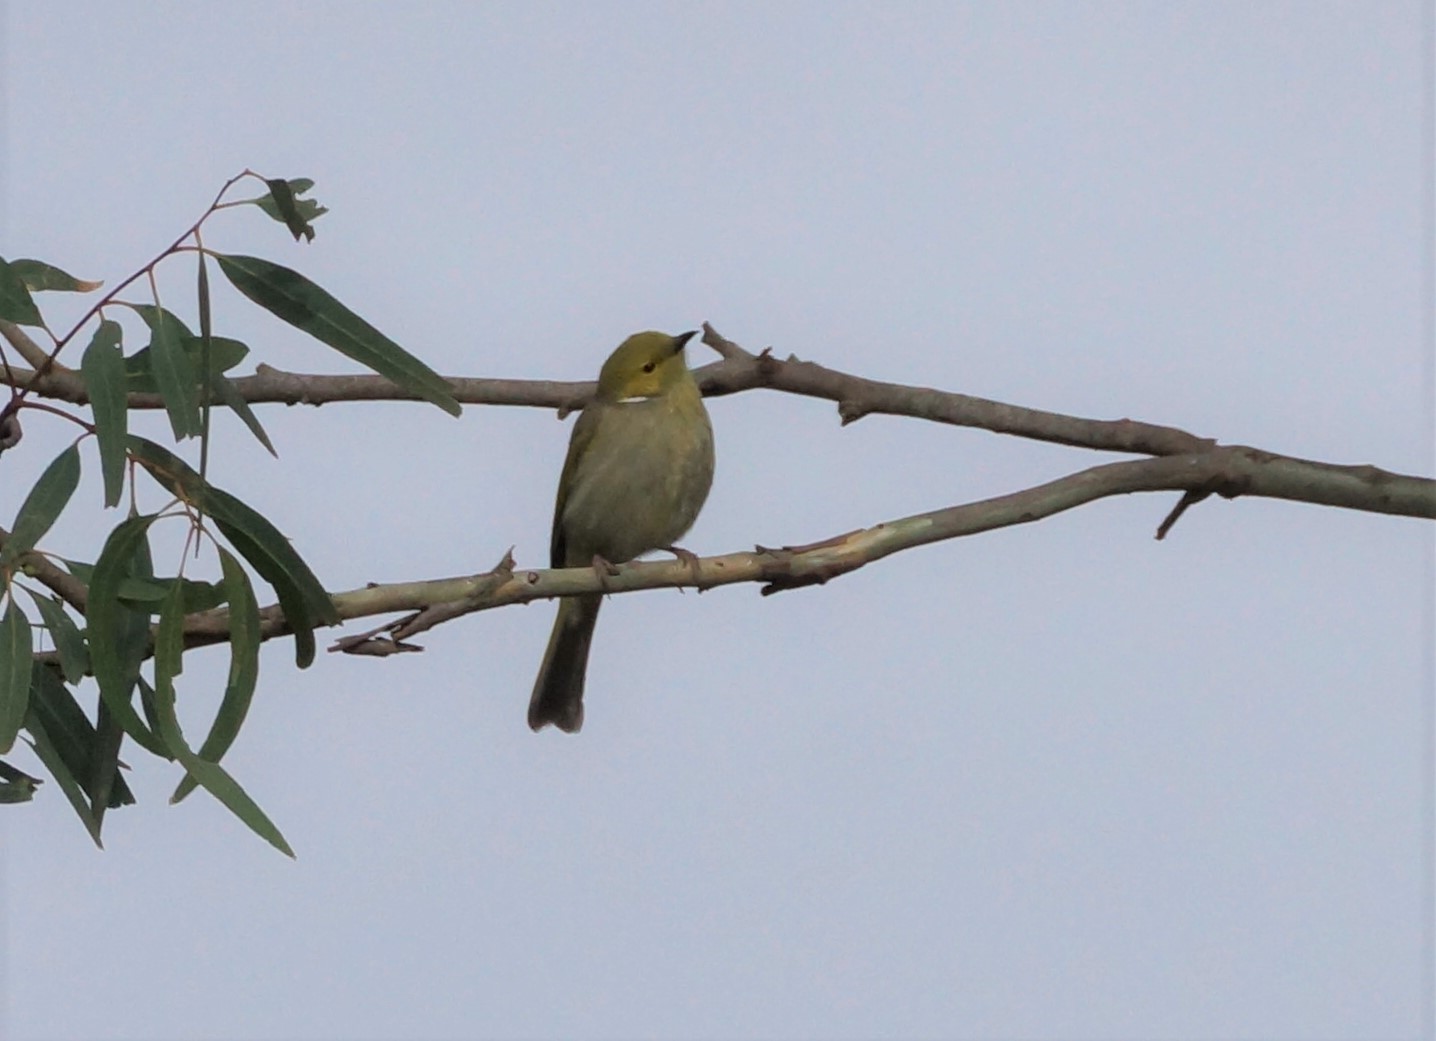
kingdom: Animalia
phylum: Chordata
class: Aves
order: Passeriformes
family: Meliphagidae
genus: Ptilotula
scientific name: Ptilotula penicillata
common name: White-plumed honeyeater
